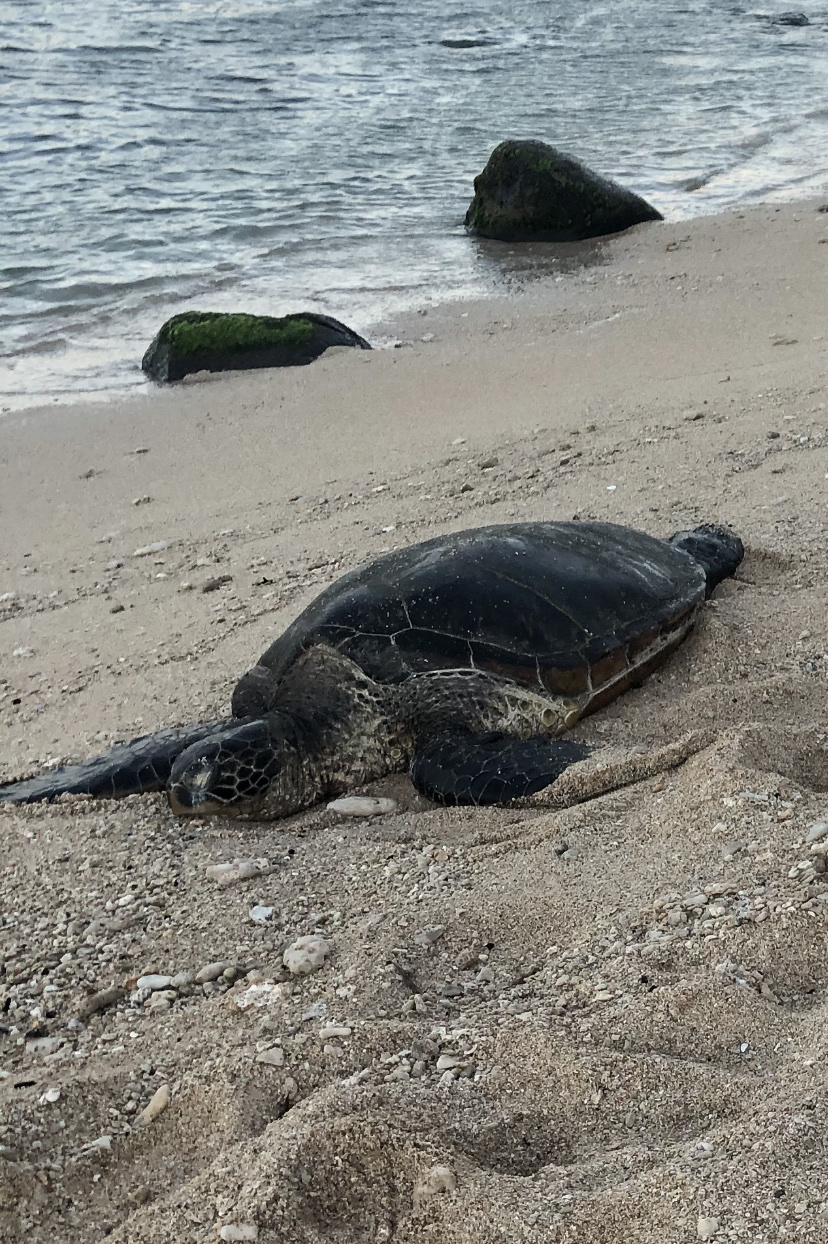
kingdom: Animalia
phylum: Chordata
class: Testudines
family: Cheloniidae
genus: Chelonia
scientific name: Chelonia mydas
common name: Green turtle
